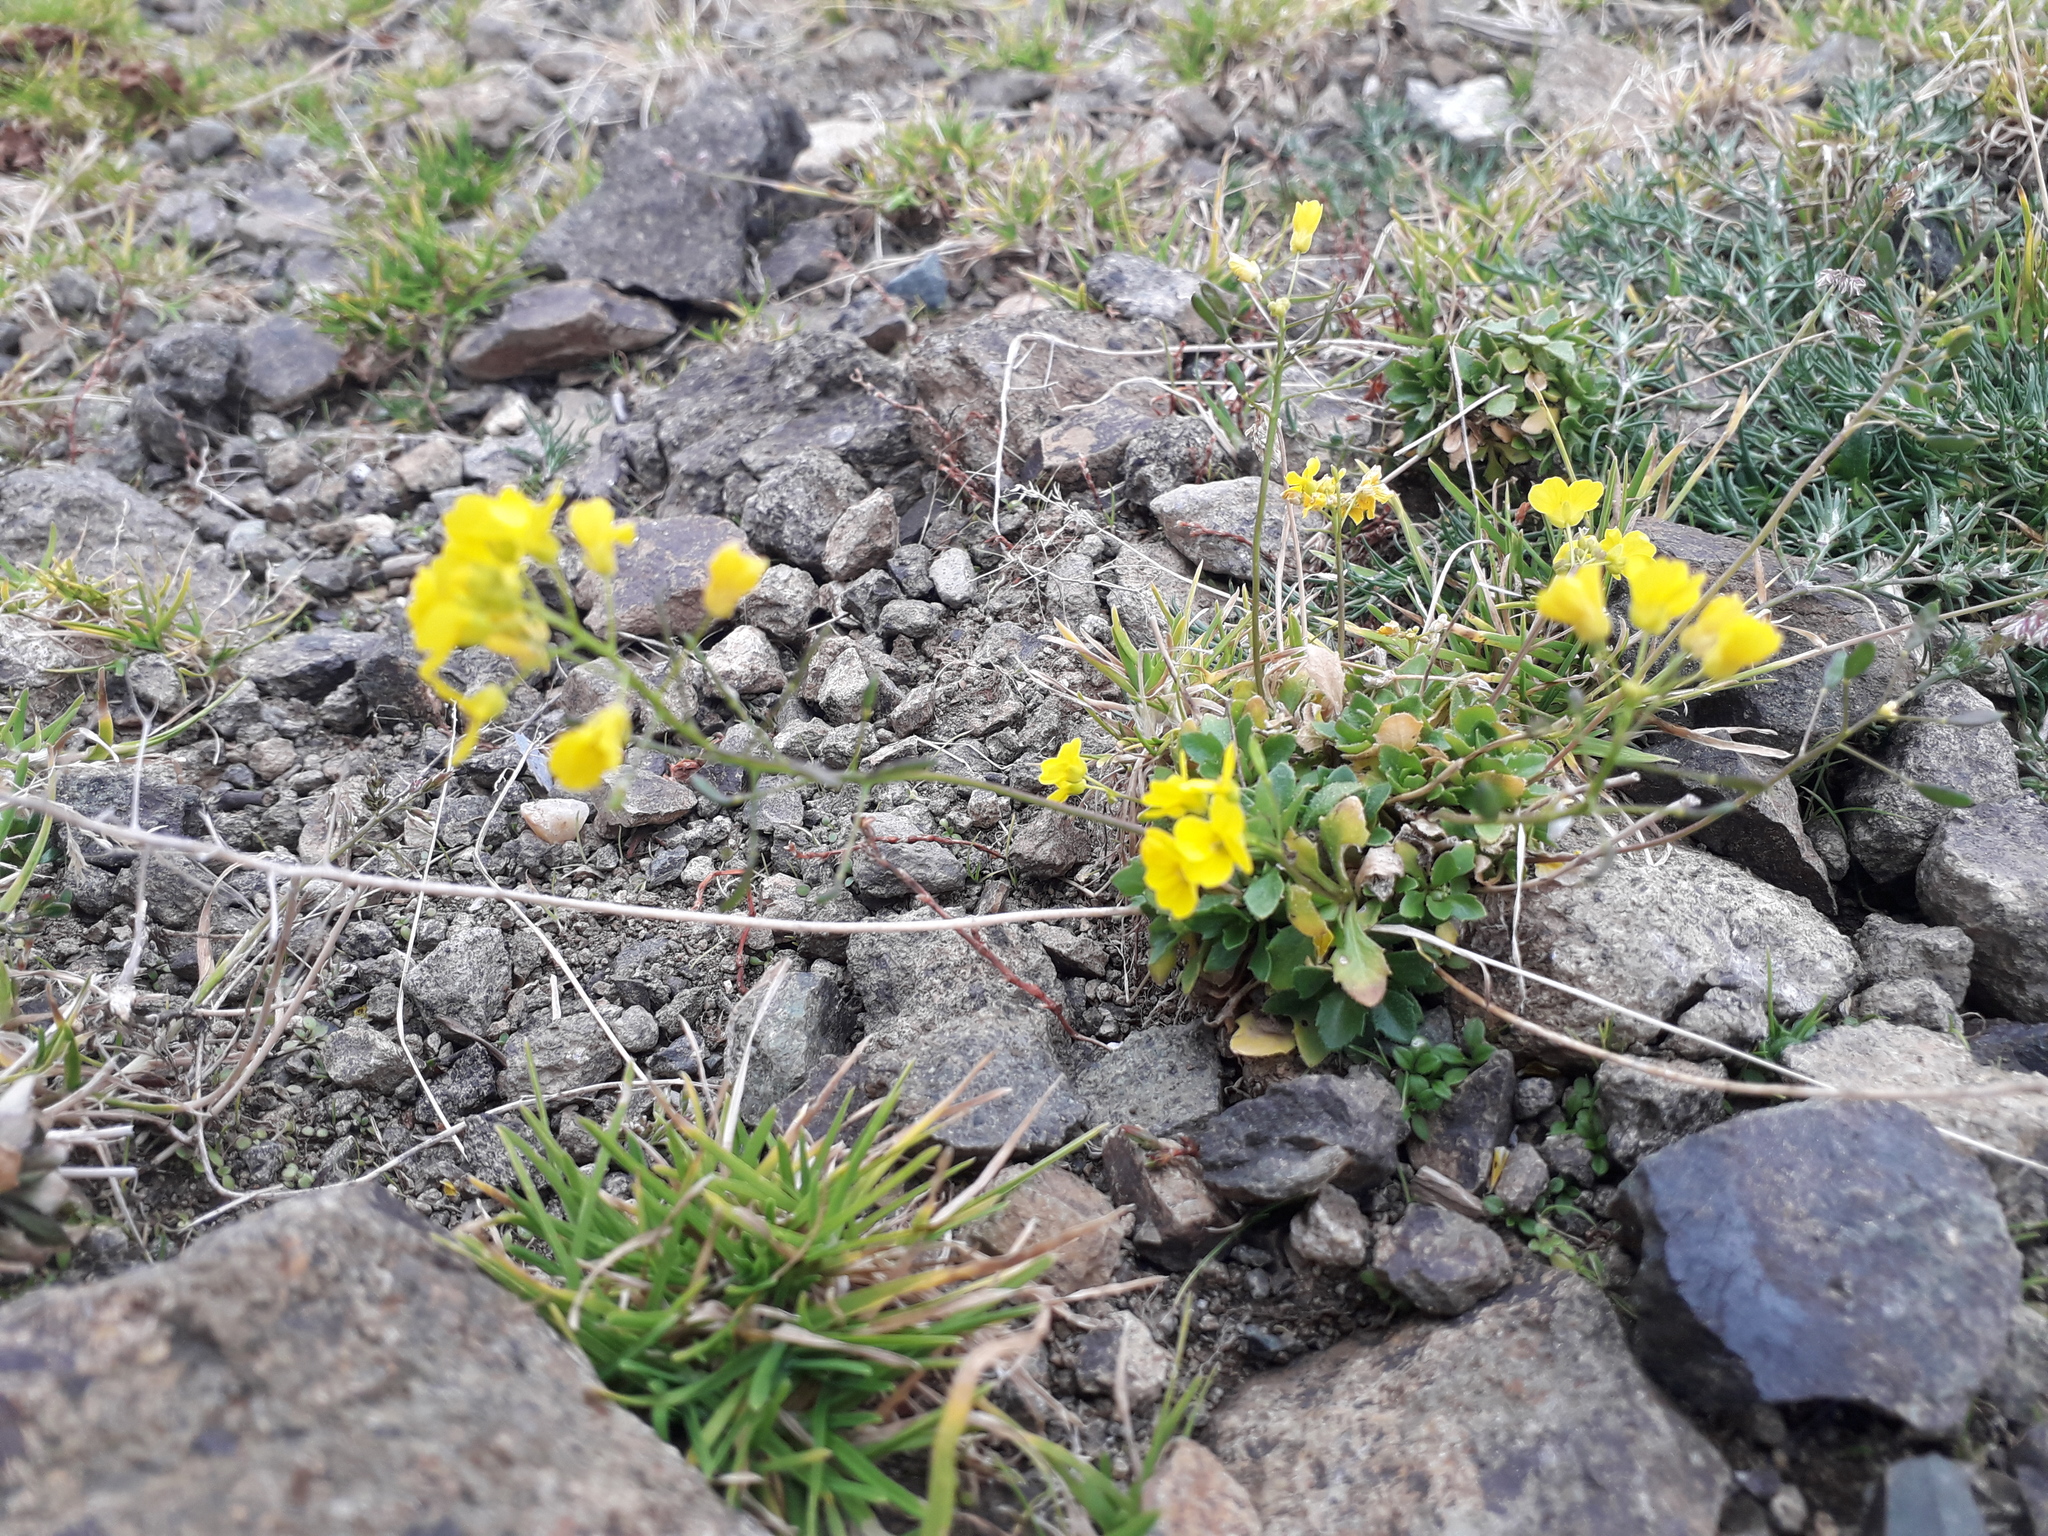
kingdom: Plantae
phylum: Tracheophyta
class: Magnoliopsida
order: Brassicales
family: Brassicaceae
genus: Draba
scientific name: Draba hispida
